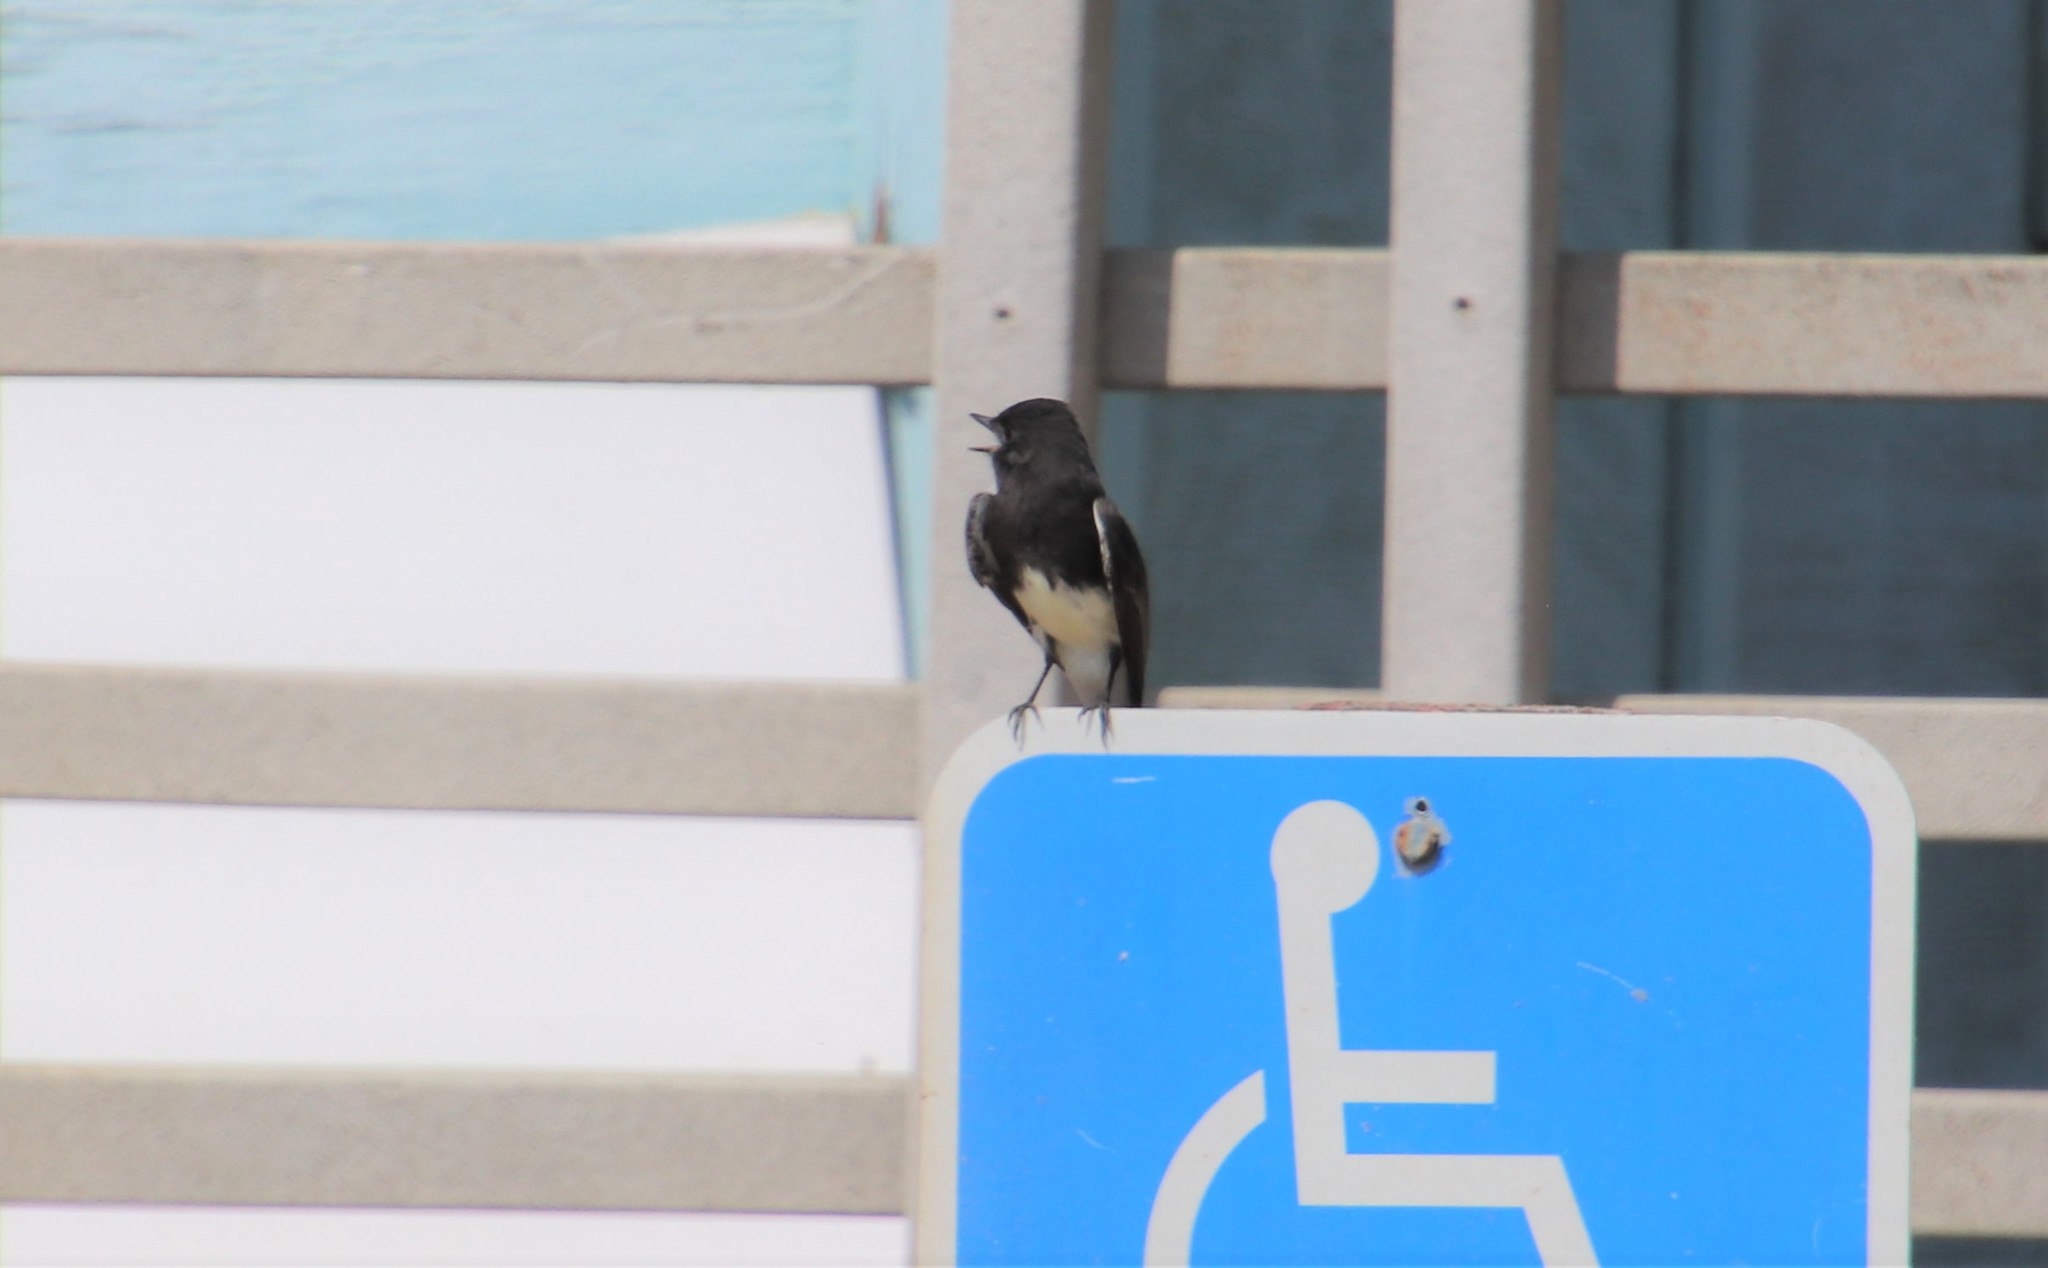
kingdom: Animalia
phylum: Chordata
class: Aves
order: Passeriformes
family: Tyrannidae
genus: Sayornis
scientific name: Sayornis nigricans
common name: Black phoebe
